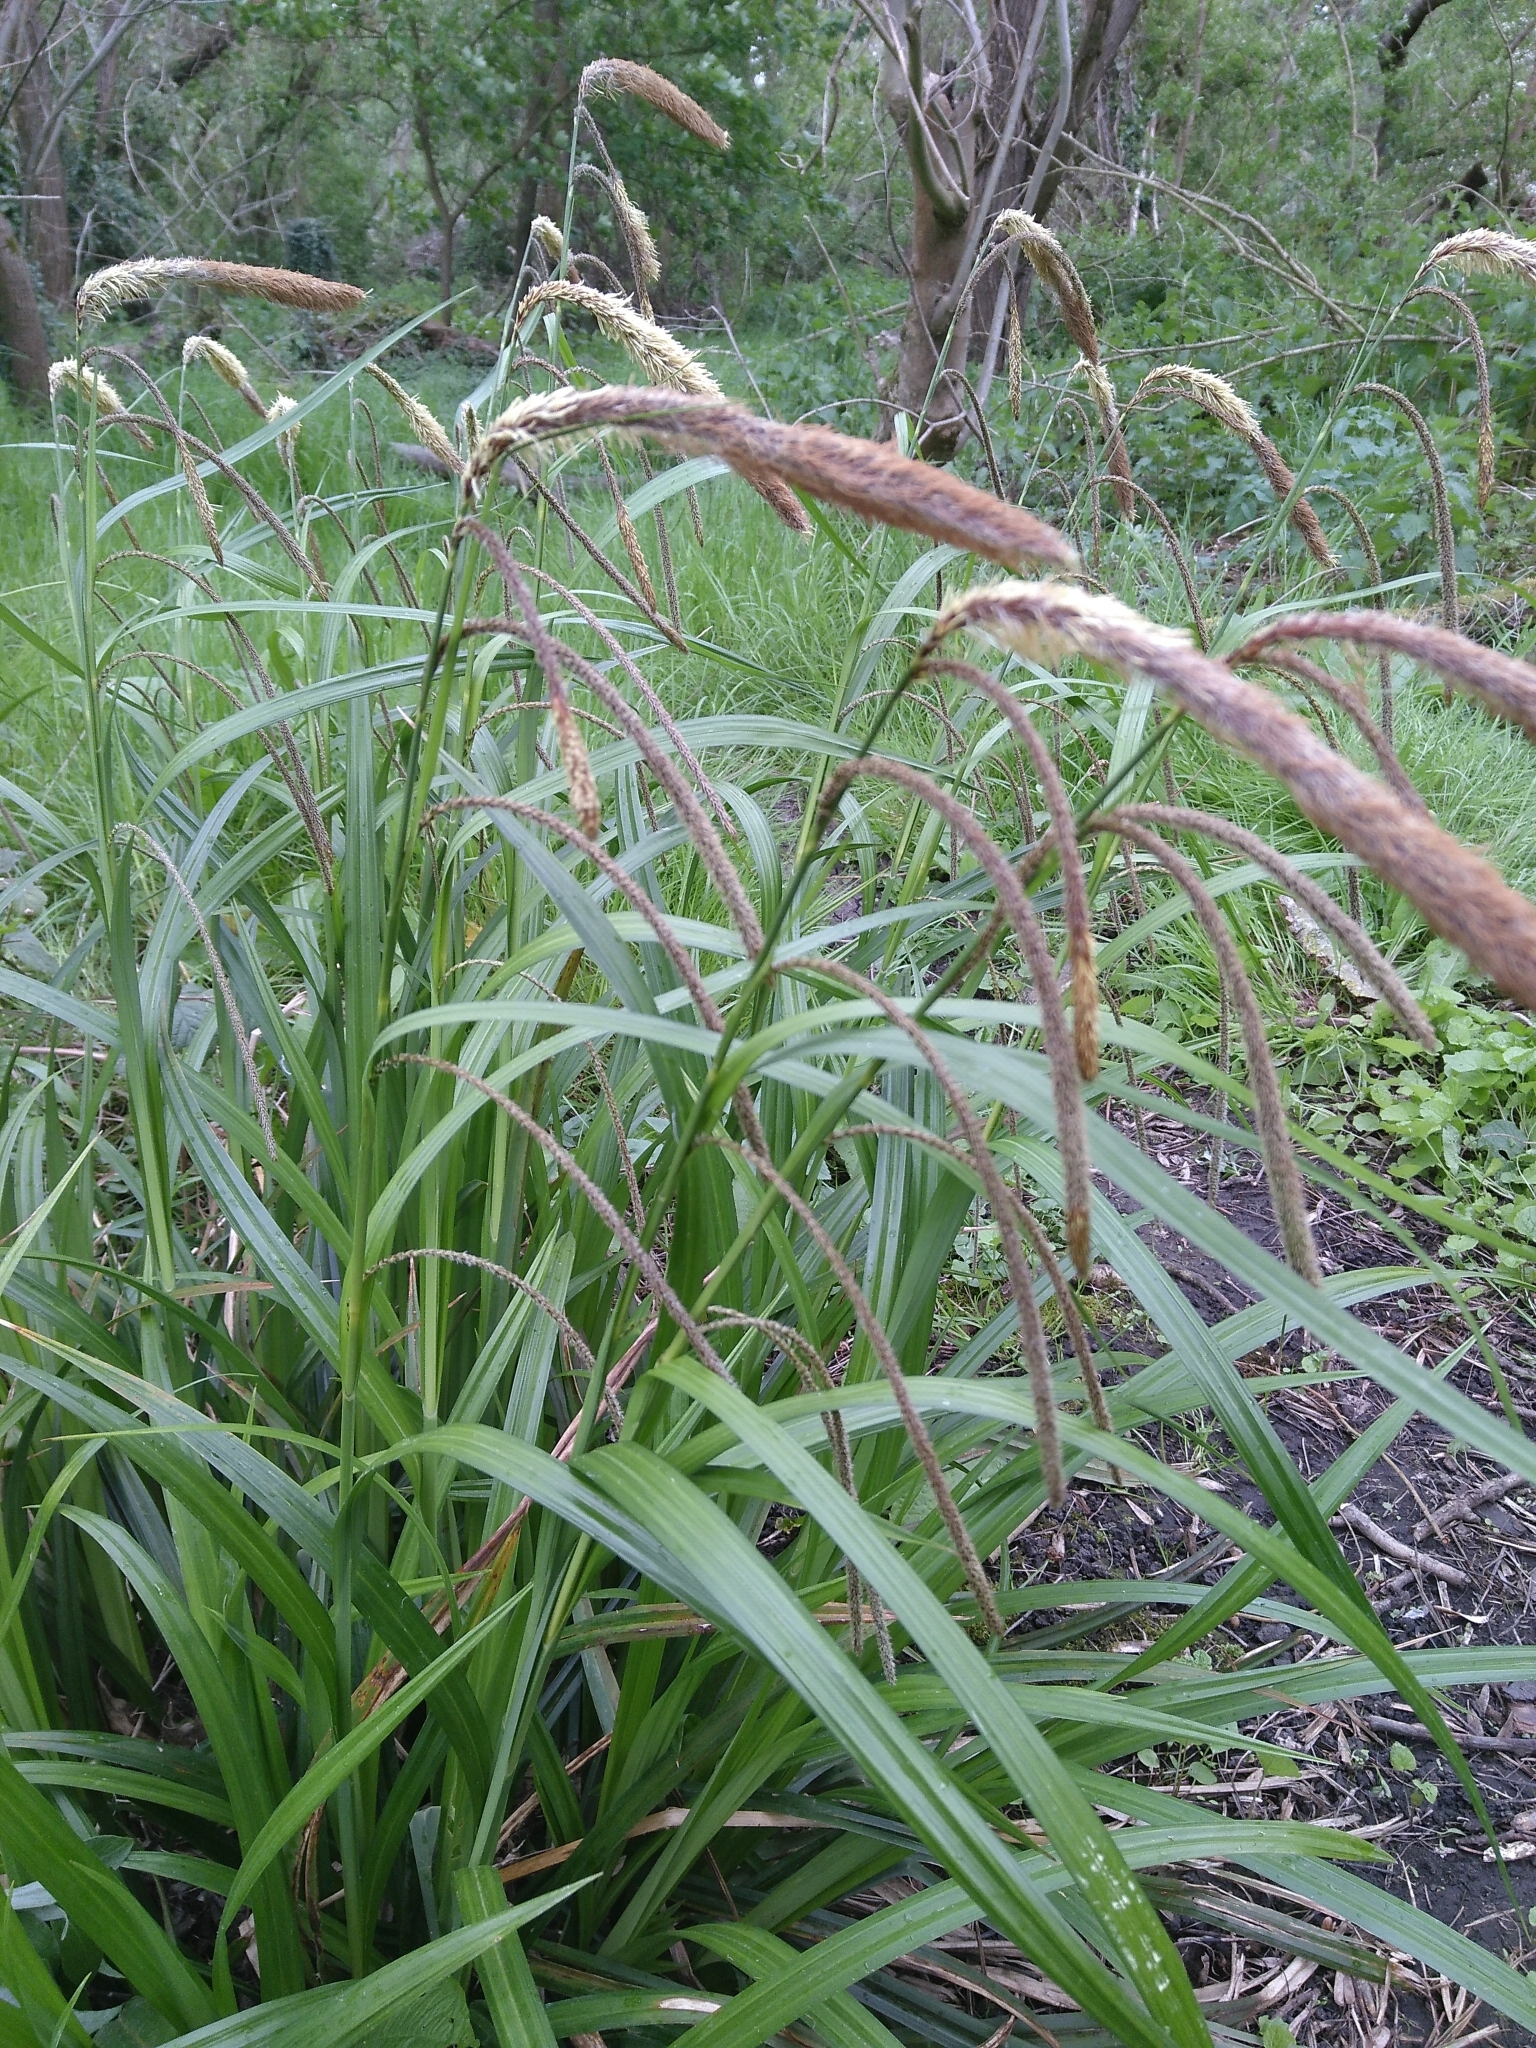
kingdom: Plantae
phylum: Tracheophyta
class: Liliopsida
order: Poales
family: Cyperaceae
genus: Carex
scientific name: Carex pendula
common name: Pendulous sedge
